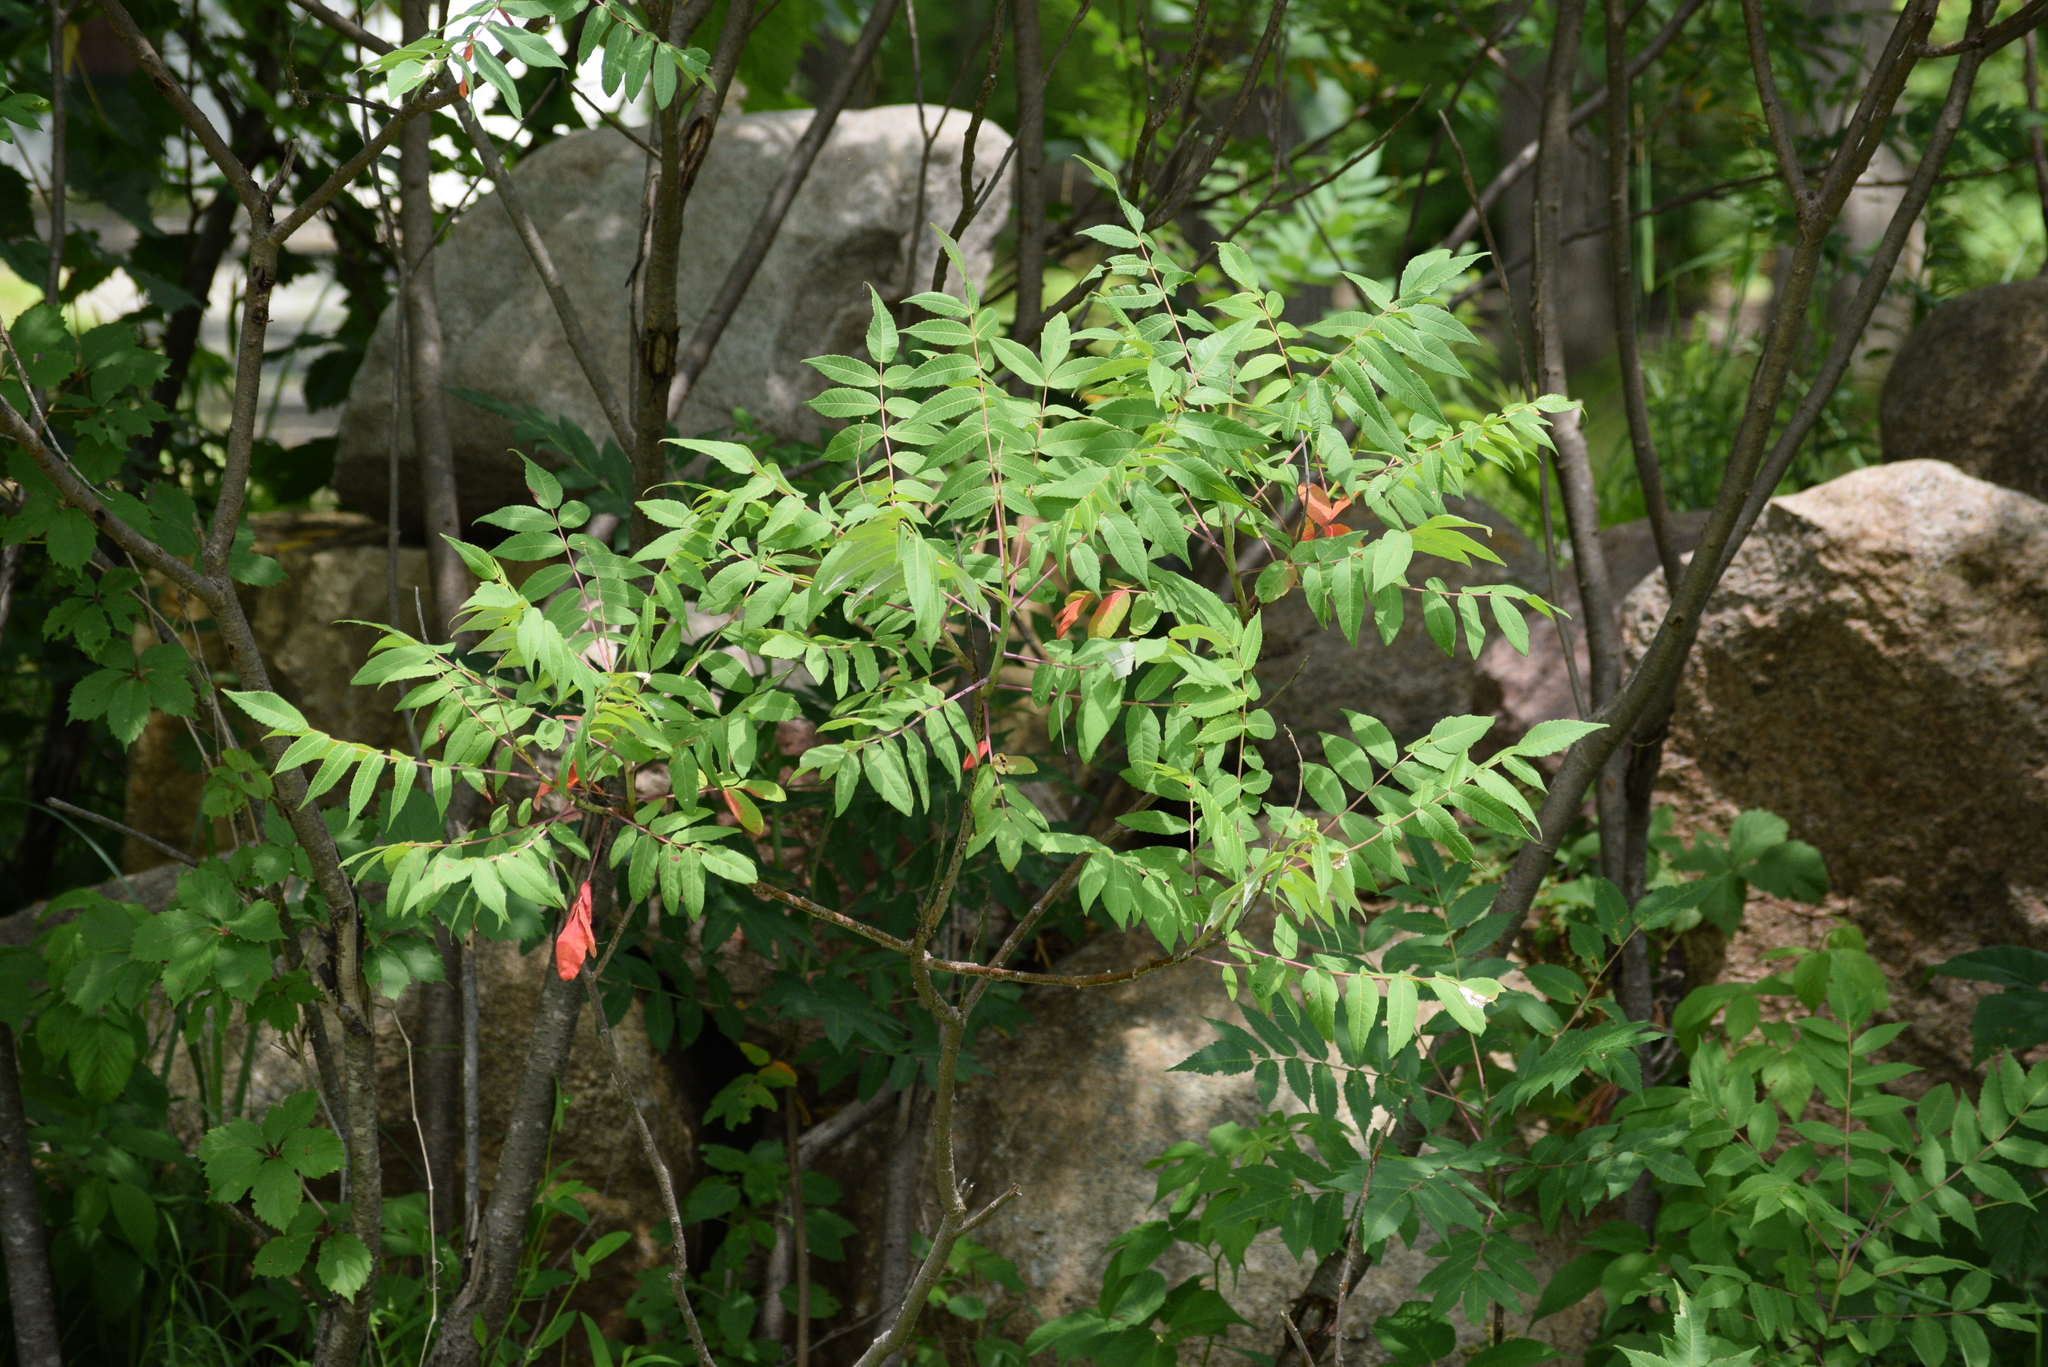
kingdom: Plantae
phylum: Tracheophyta
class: Magnoliopsida
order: Sapindales
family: Anacardiaceae
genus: Rhus
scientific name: Rhus glabra
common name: Scarlet sumac
